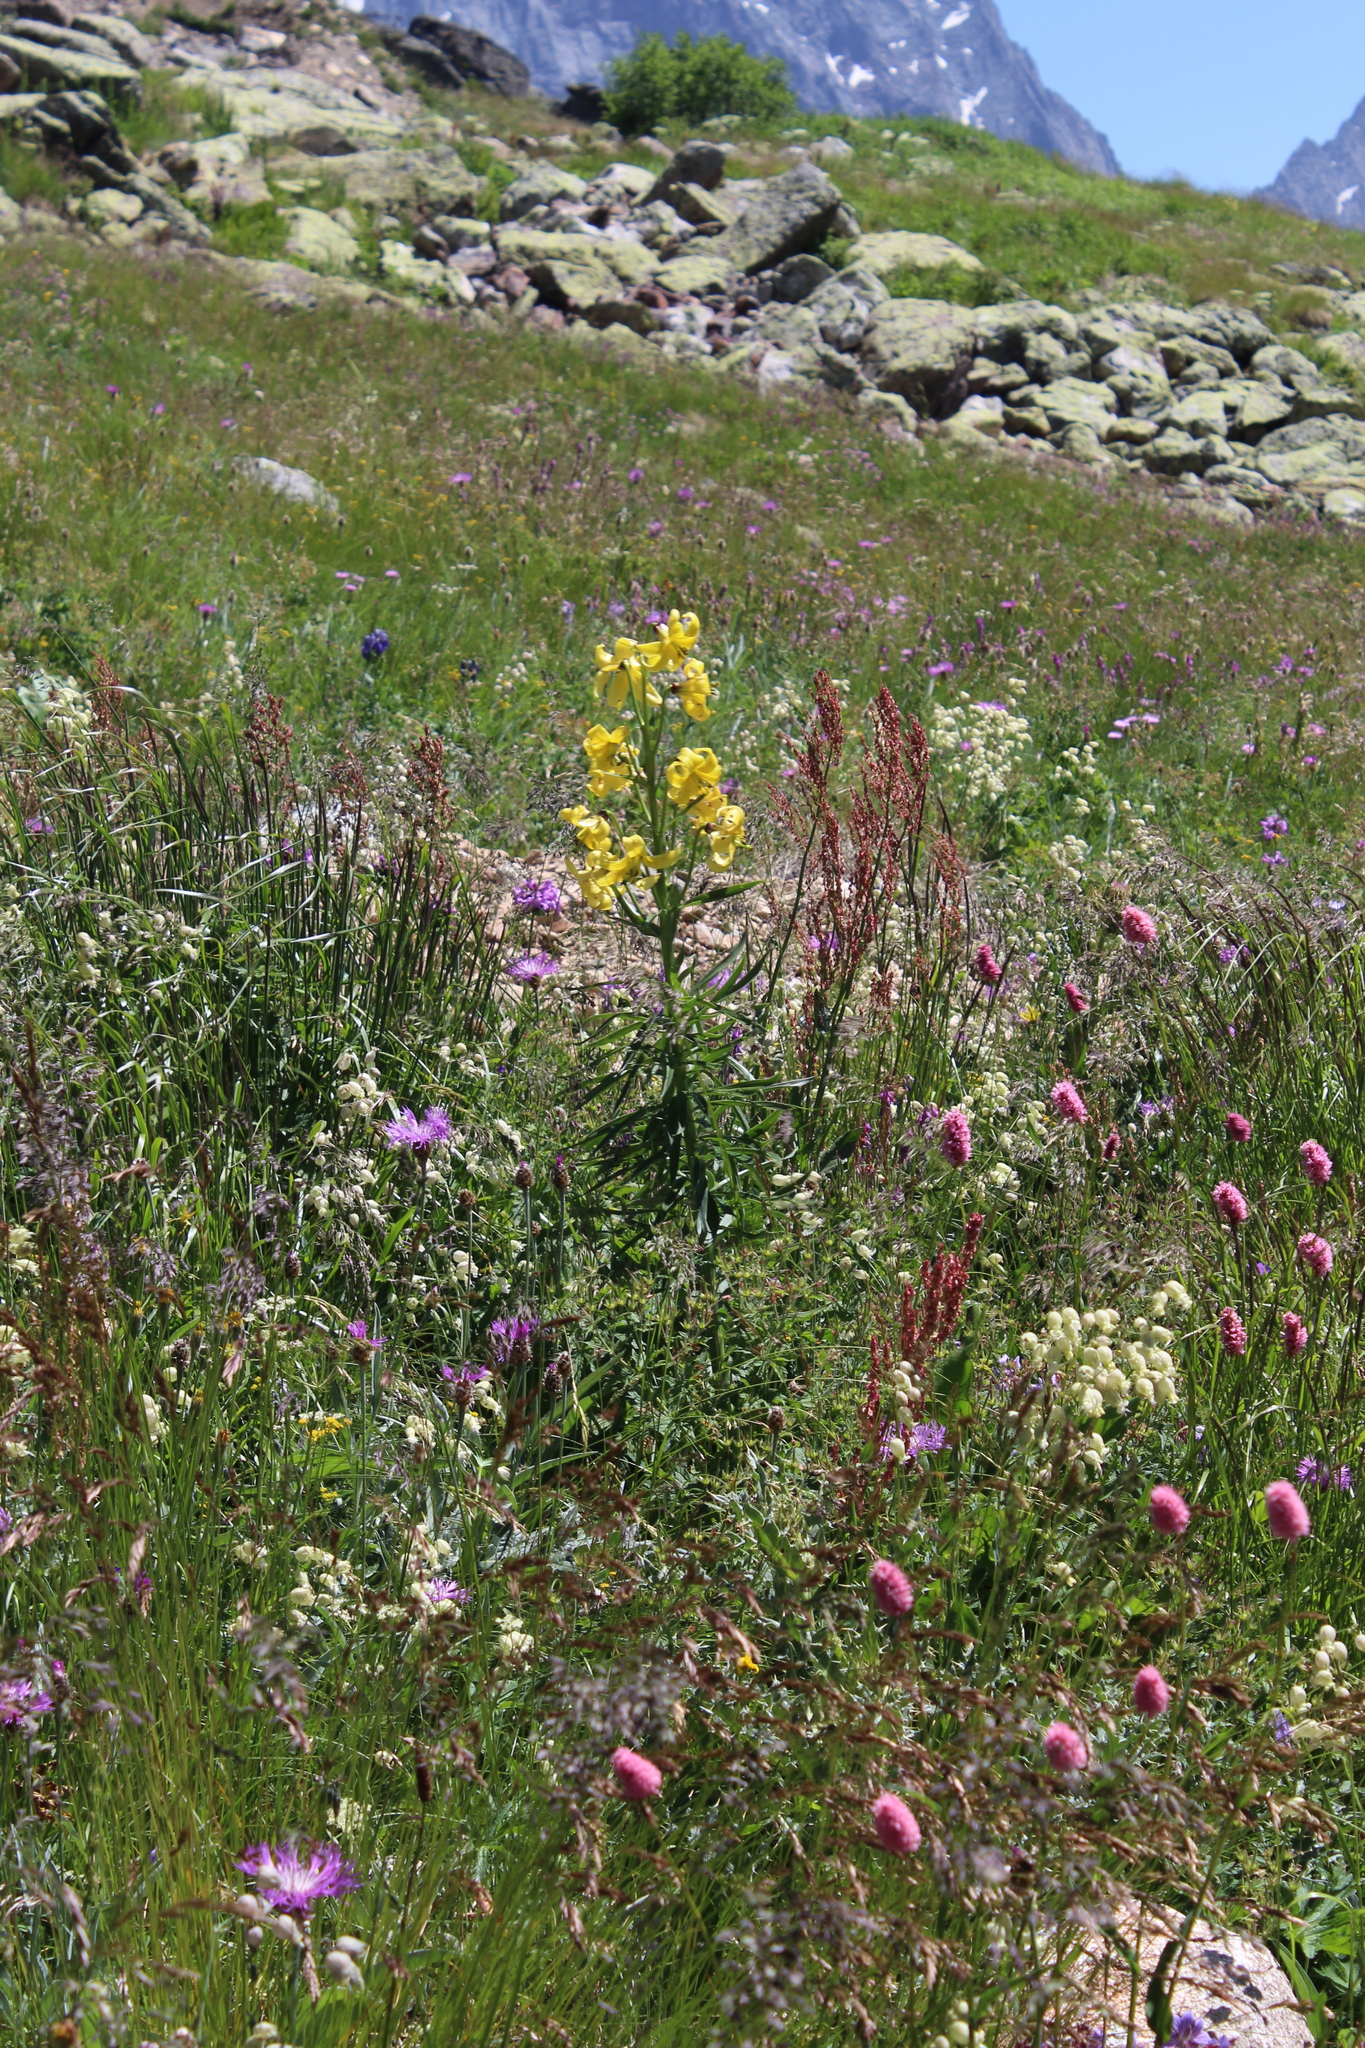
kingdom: Plantae
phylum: Tracheophyta
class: Liliopsida
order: Liliales
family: Liliaceae
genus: Lilium
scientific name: Lilium kesselringianum
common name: Kesselring lily
